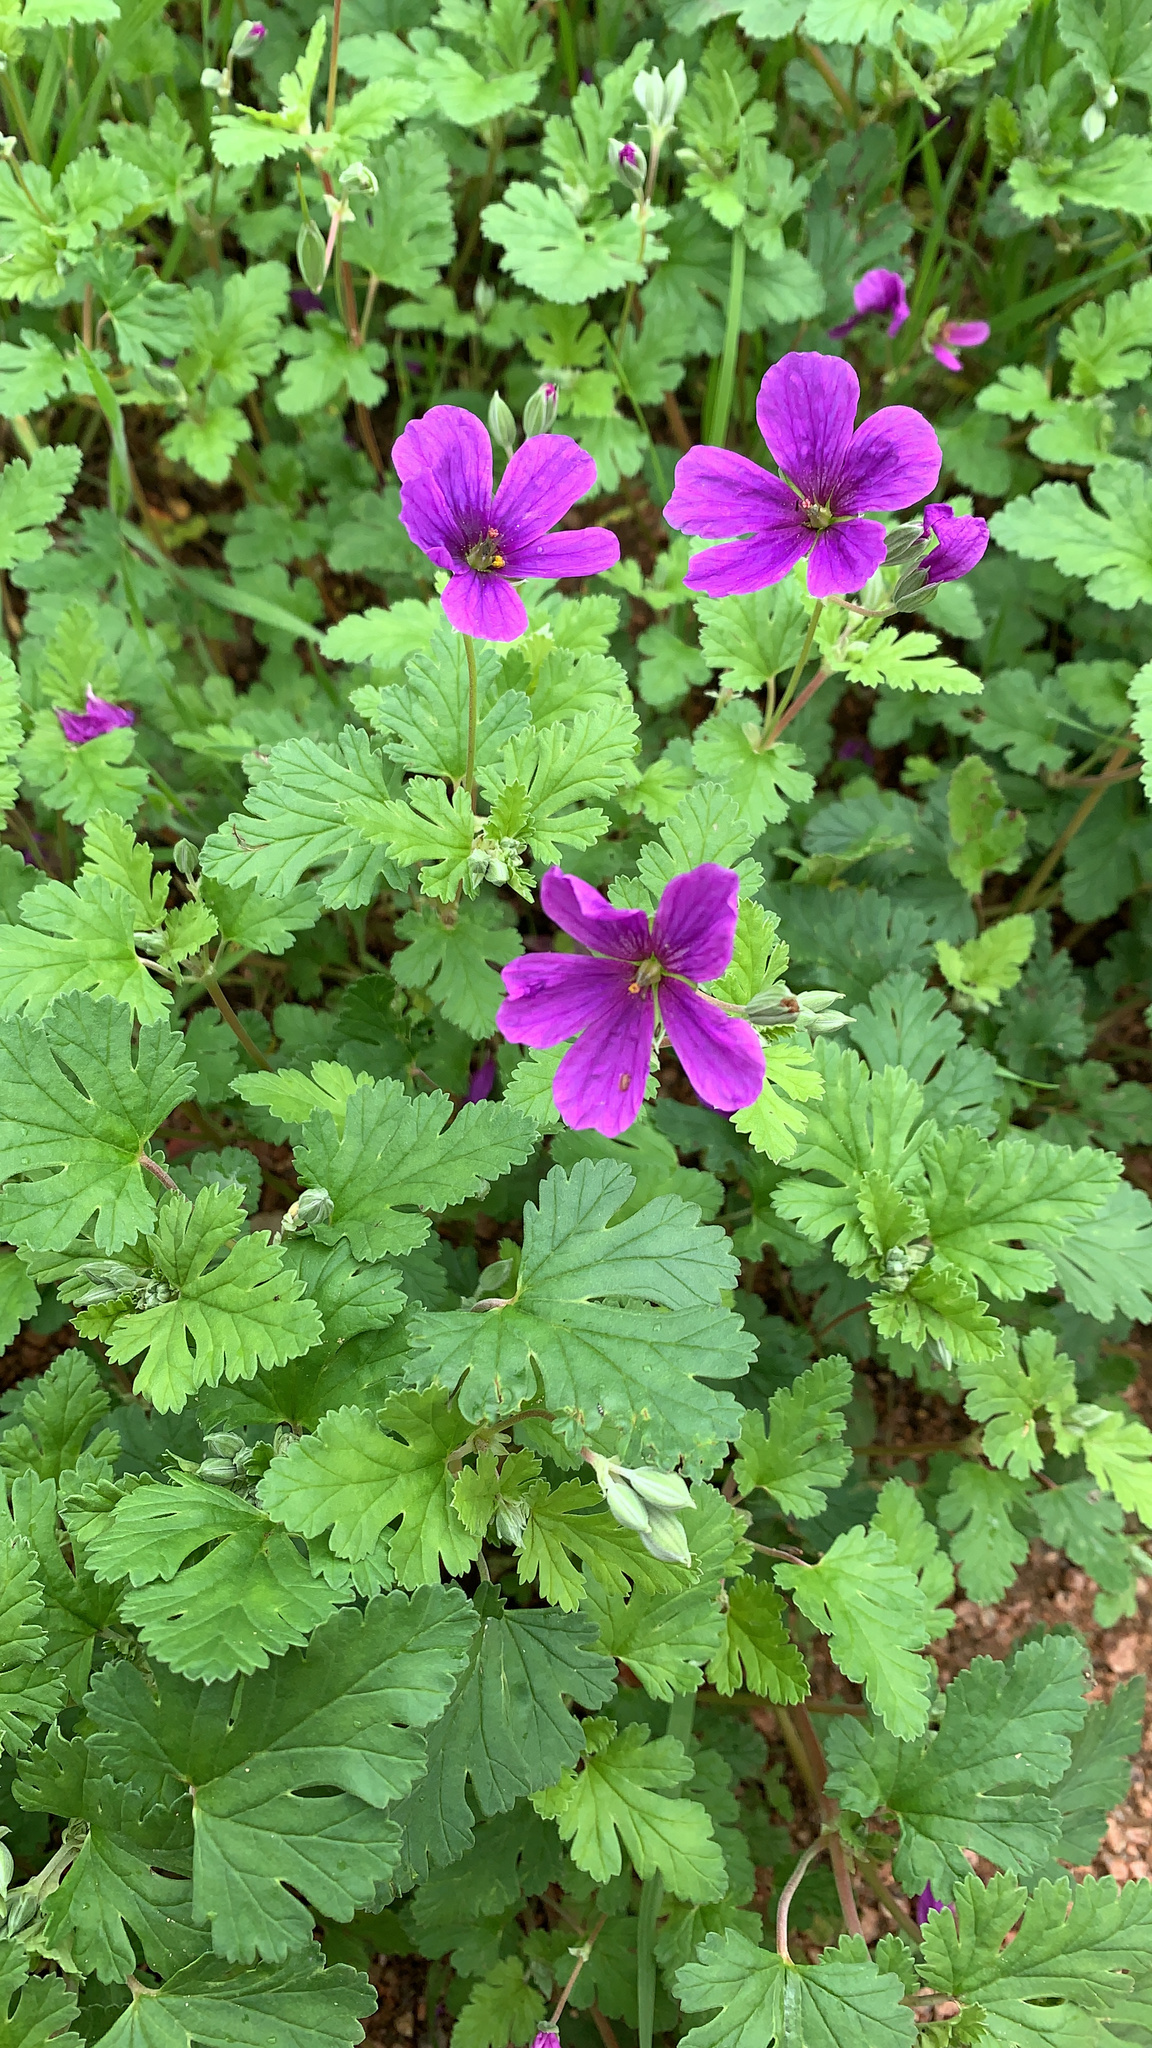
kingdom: Plantae
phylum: Tracheophyta
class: Magnoliopsida
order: Geraniales
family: Geraniaceae
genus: Erodium
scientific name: Erodium texanum
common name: Texas stork's-bill
